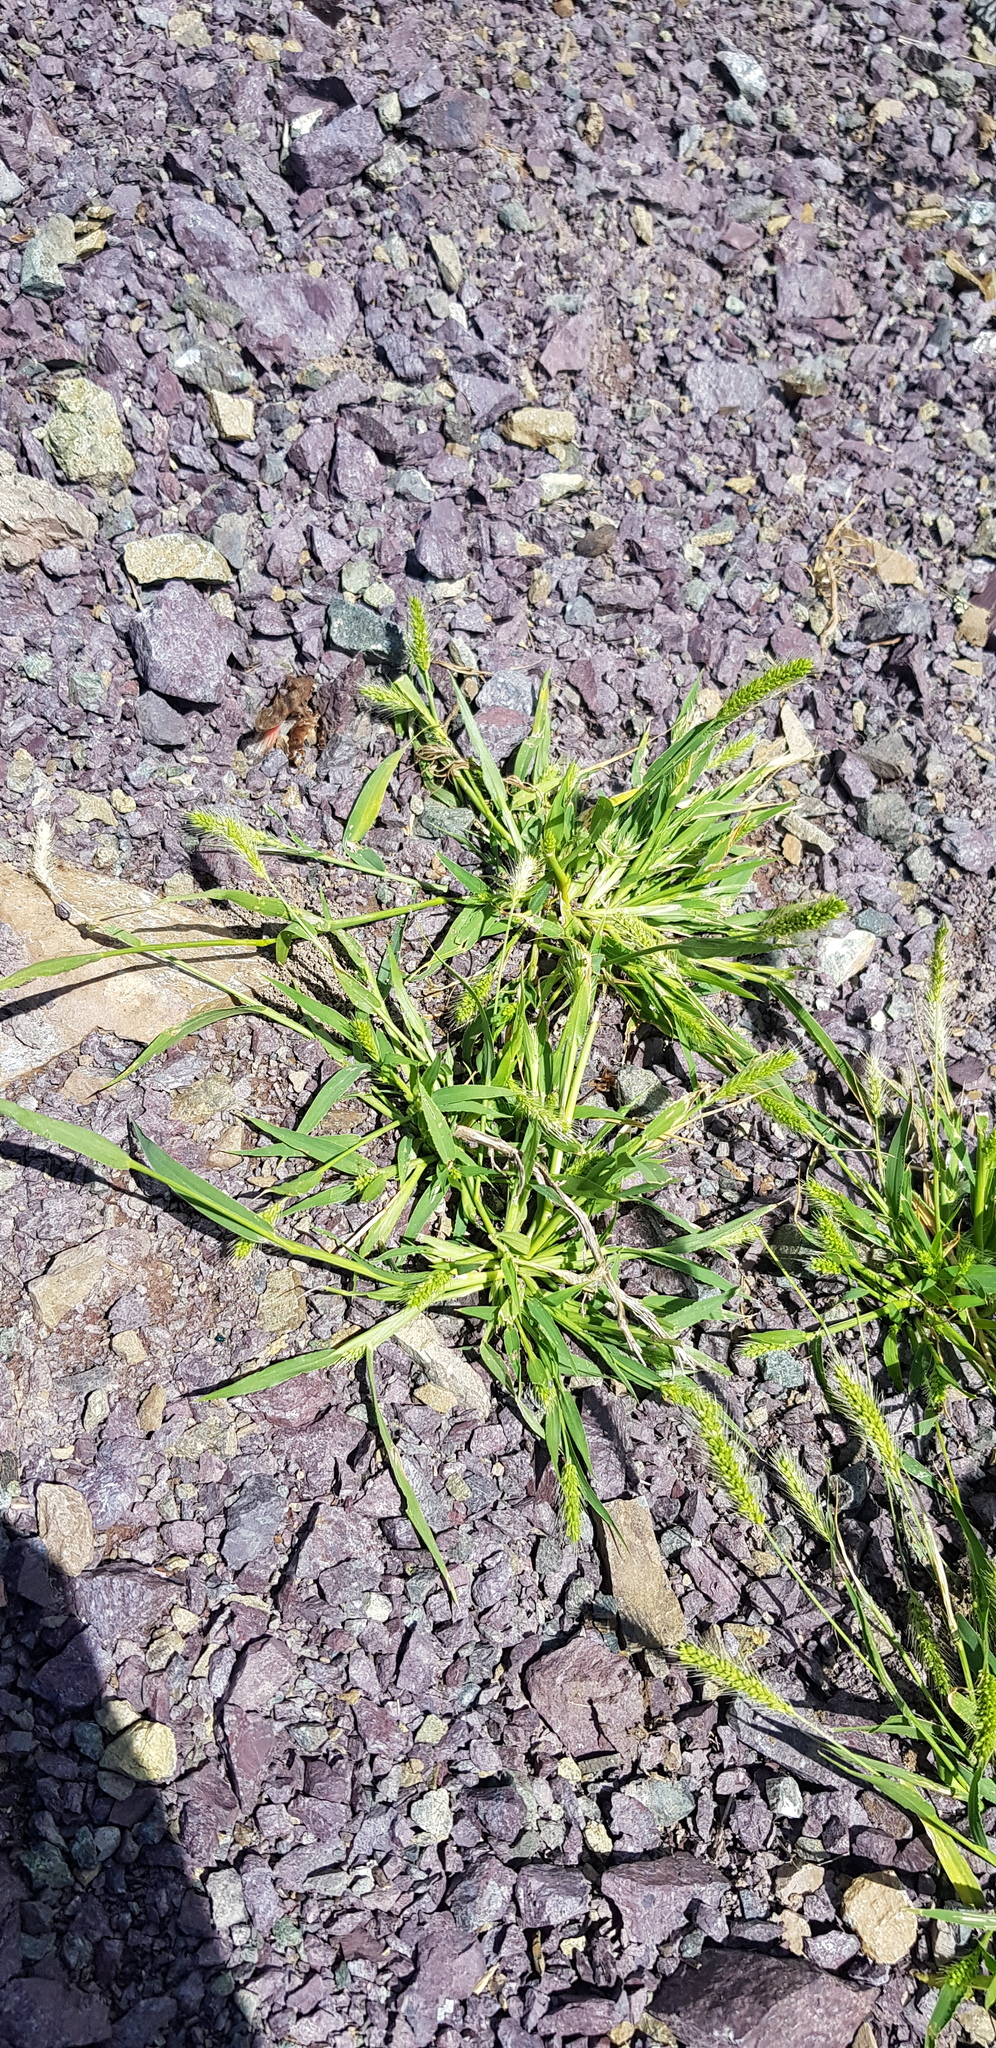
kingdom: Plantae
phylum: Tracheophyta
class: Liliopsida
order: Poales
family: Poaceae
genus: Setaria
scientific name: Setaria viridis
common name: Green bristlegrass
